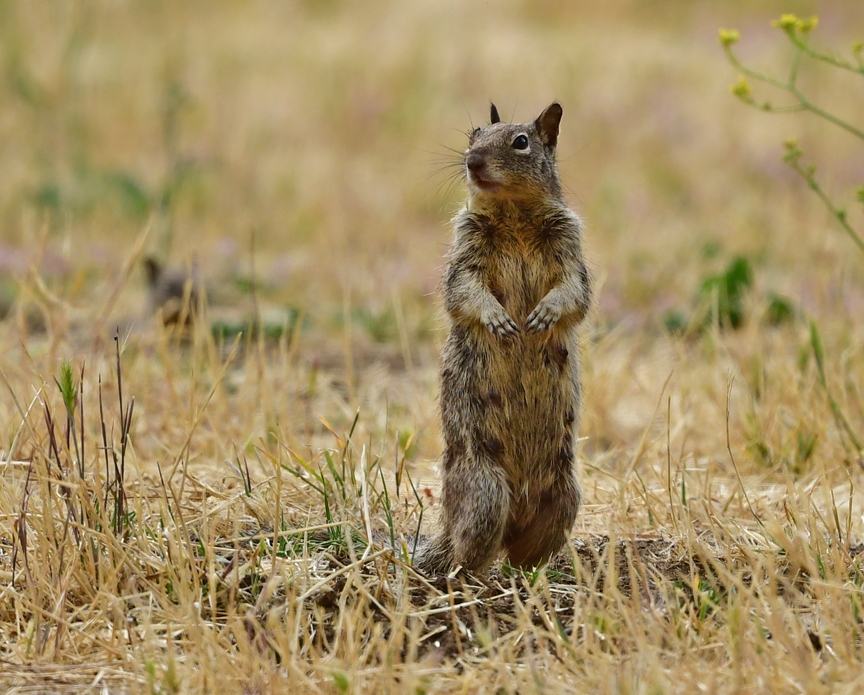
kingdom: Animalia
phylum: Chordata
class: Mammalia
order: Rodentia
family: Sciuridae
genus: Otospermophilus
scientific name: Otospermophilus beecheyi
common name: California ground squirrel
